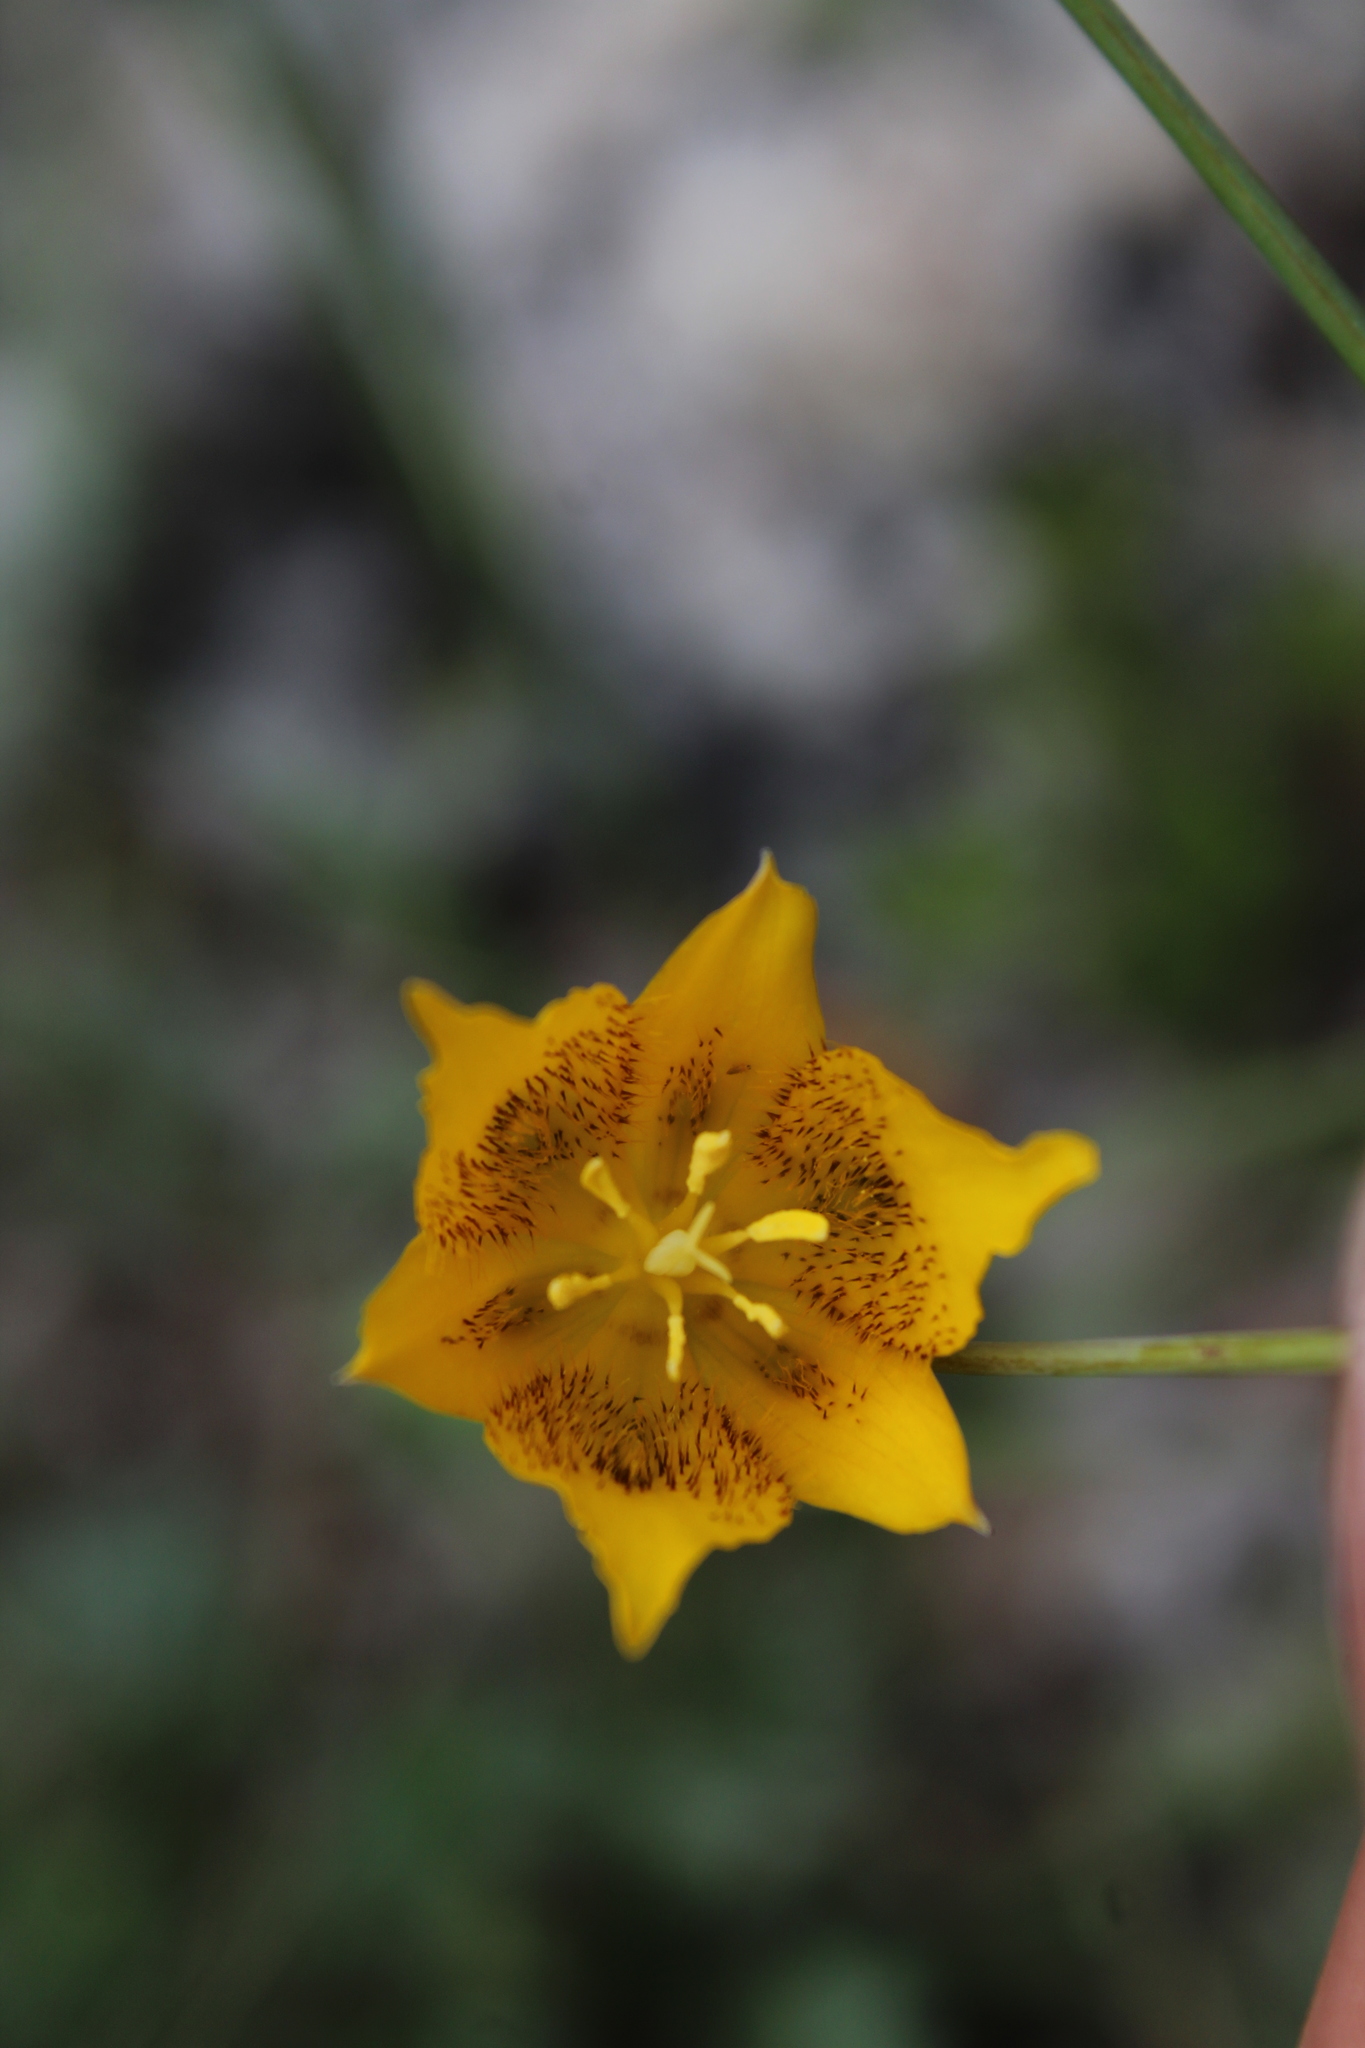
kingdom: Plantae
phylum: Tracheophyta
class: Liliopsida
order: Liliales
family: Liliaceae
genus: Calochortus
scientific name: Calochortus barbatus
